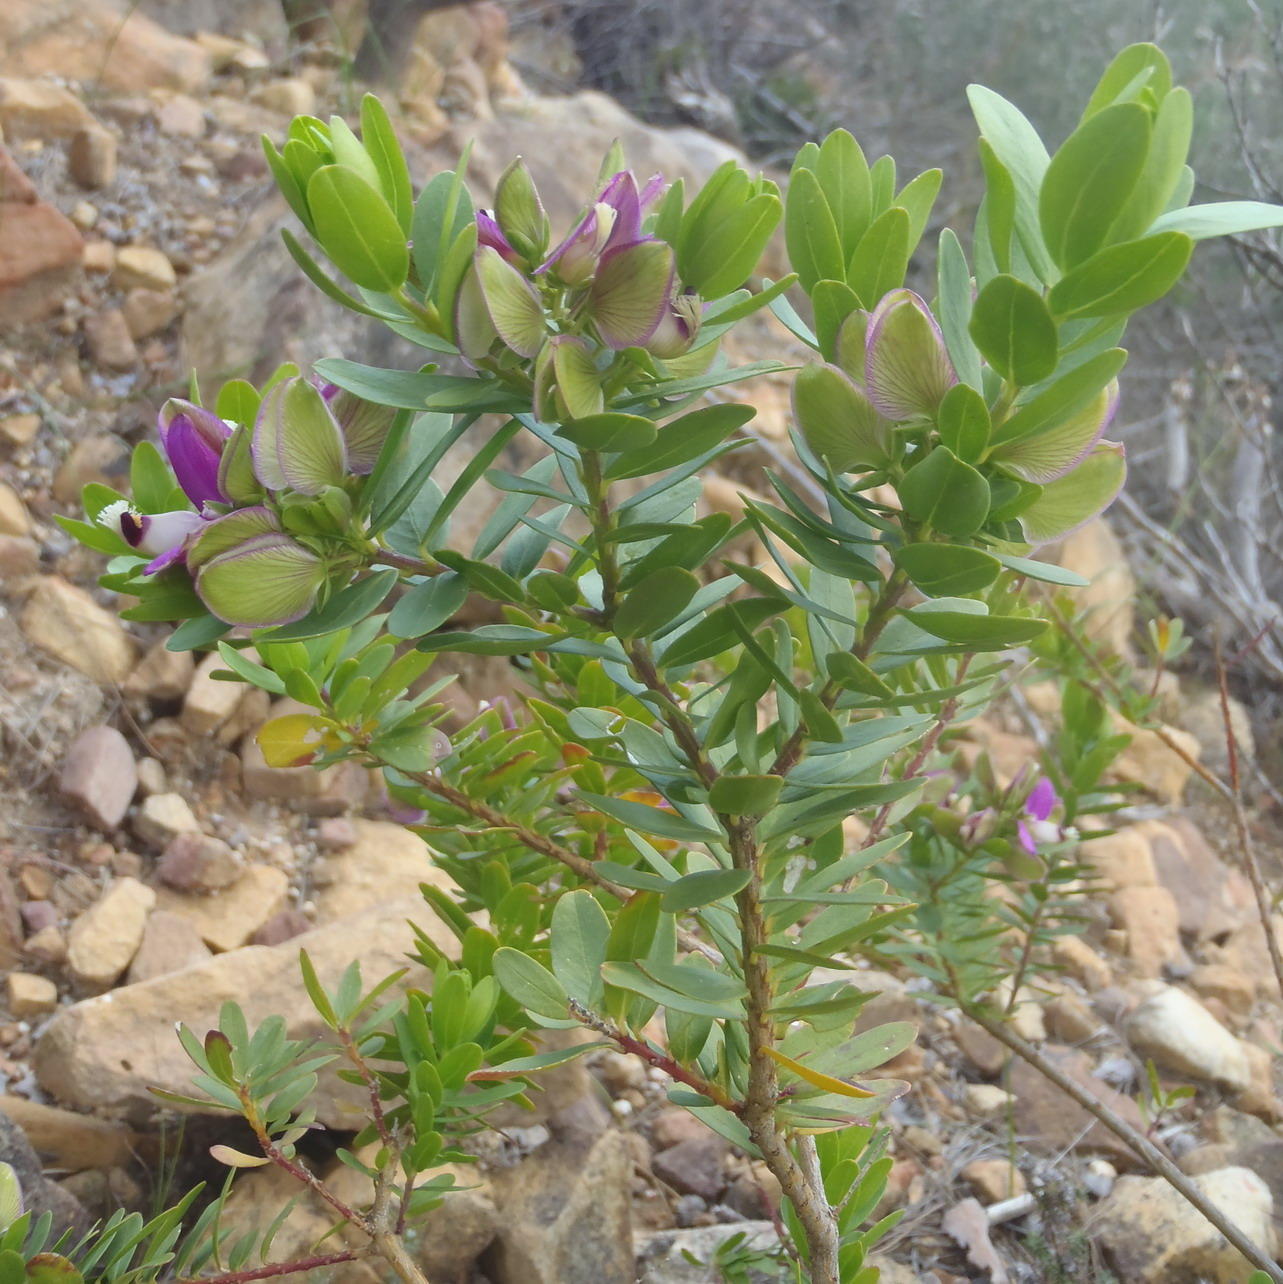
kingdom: Plantae
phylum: Tracheophyta
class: Magnoliopsida
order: Fabales
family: Polygalaceae
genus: Polygala
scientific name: Polygala myrtifolia
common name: Myrtle-leaf milkwort
